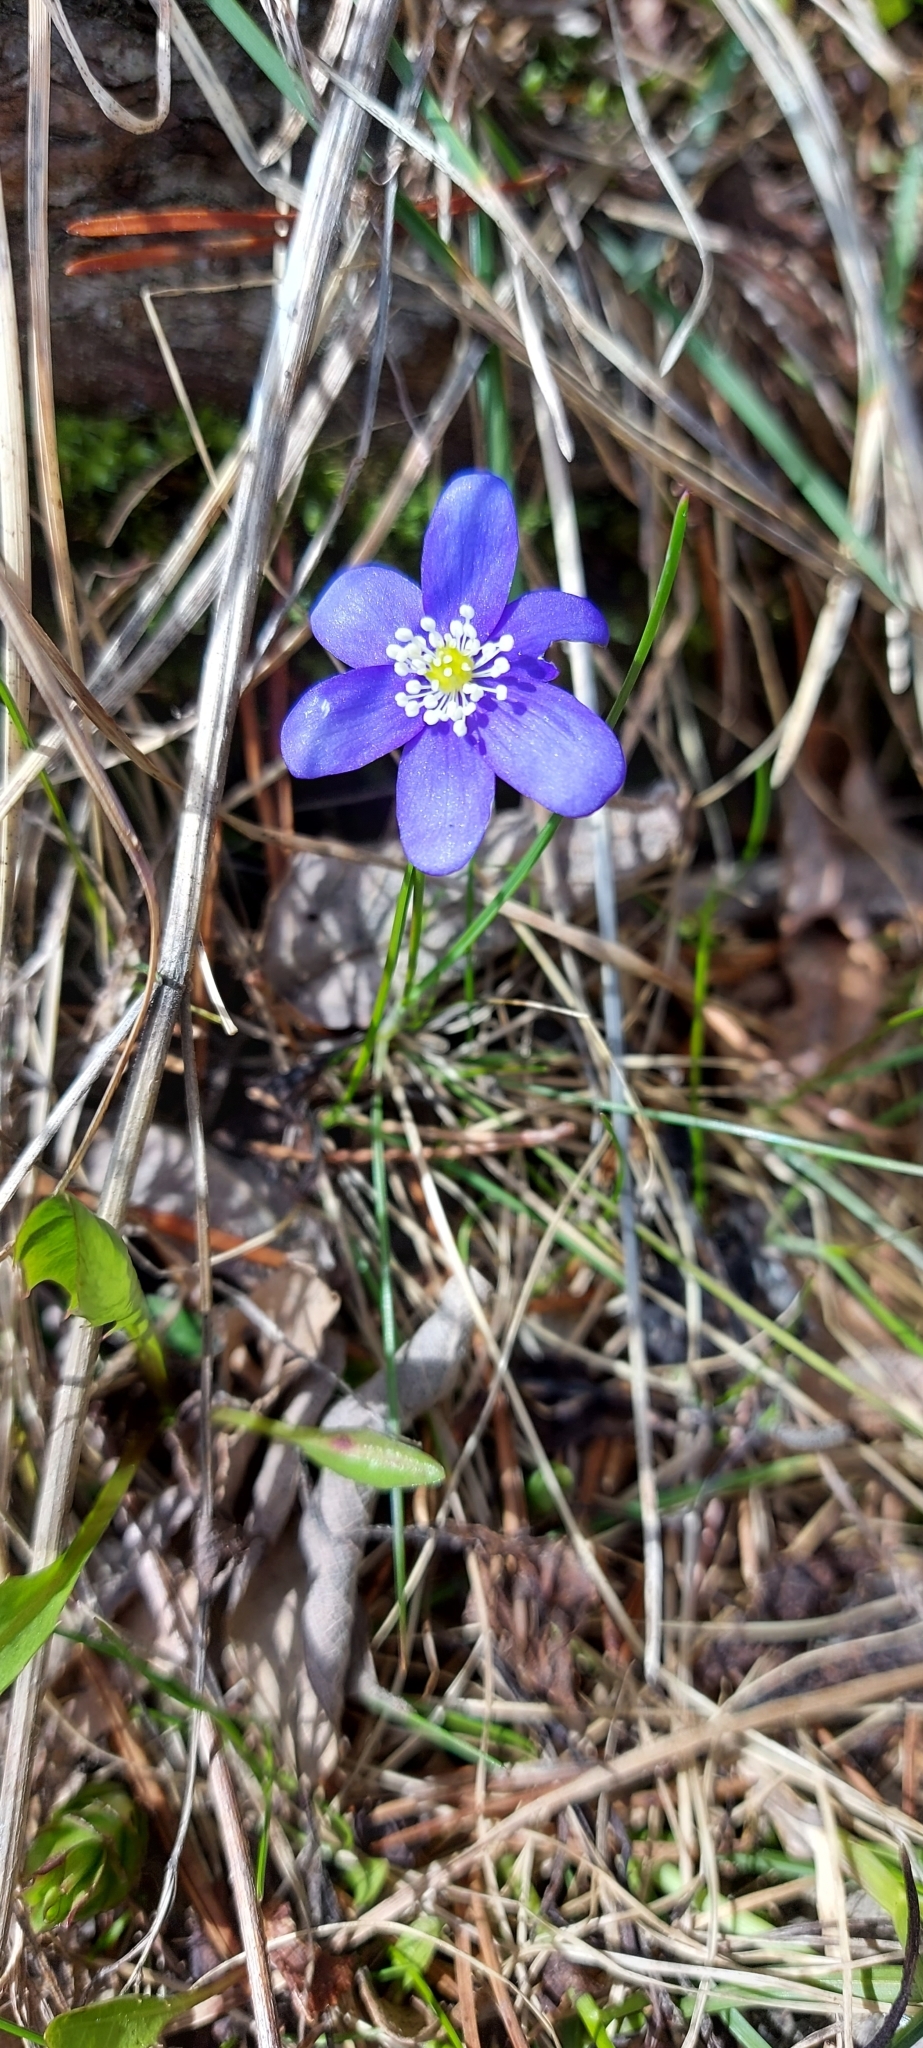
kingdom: Plantae
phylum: Tracheophyta
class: Magnoliopsida
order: Ranunculales
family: Ranunculaceae
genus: Hepatica
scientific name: Hepatica nobilis
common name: Liverleaf
